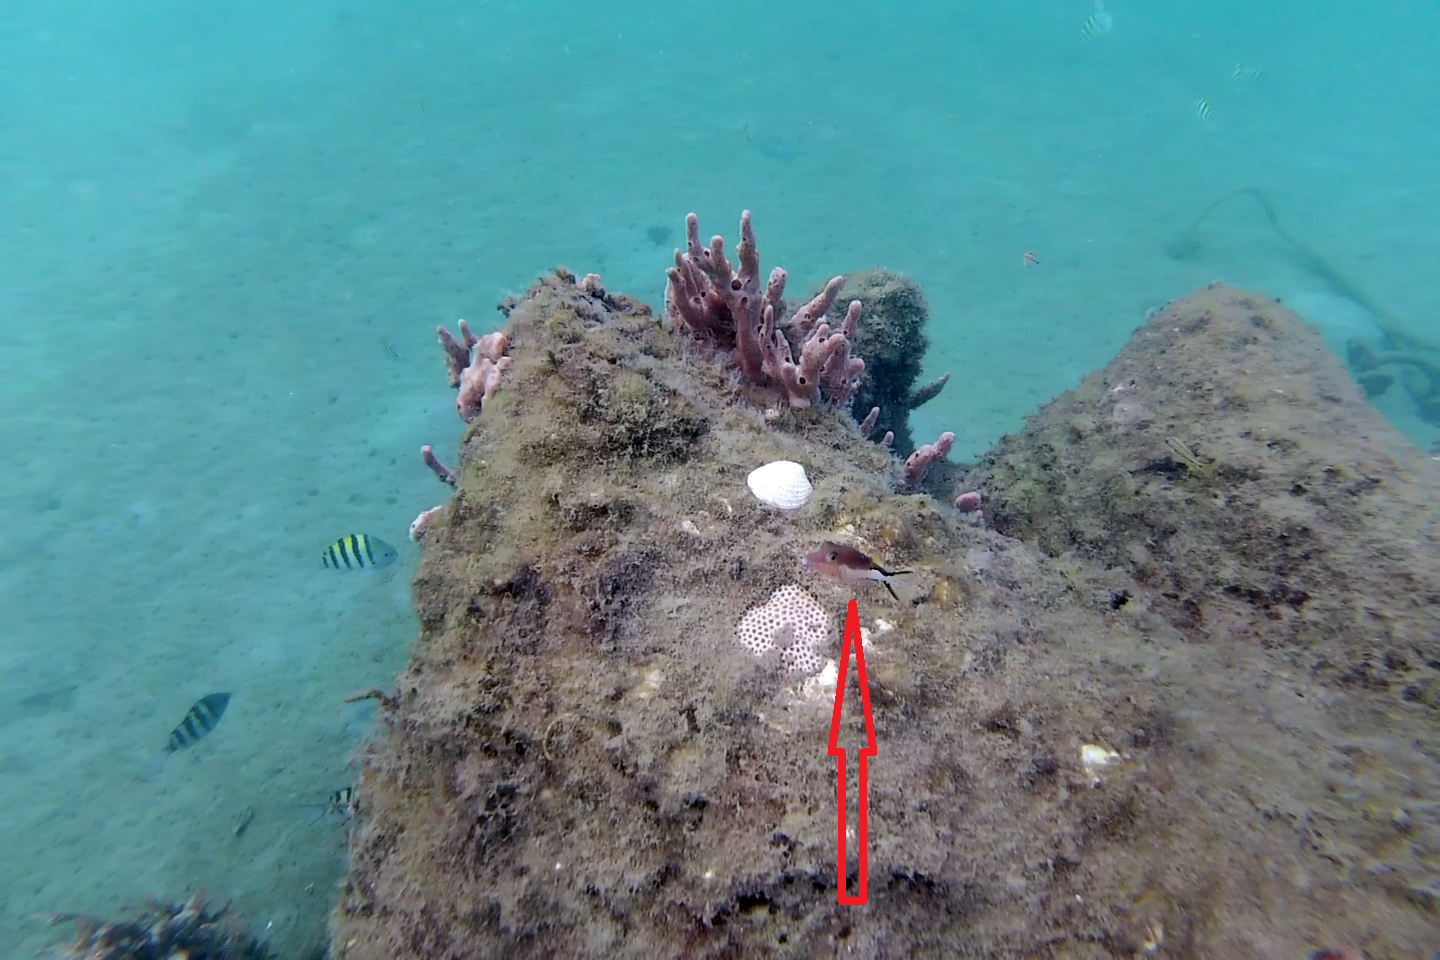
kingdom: Animalia
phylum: Chordata
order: Tetraodontiformes
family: Tetraodontidae
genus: Canthigaster
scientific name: Canthigaster rostrata
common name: Caribbean sharpnose-puffer
